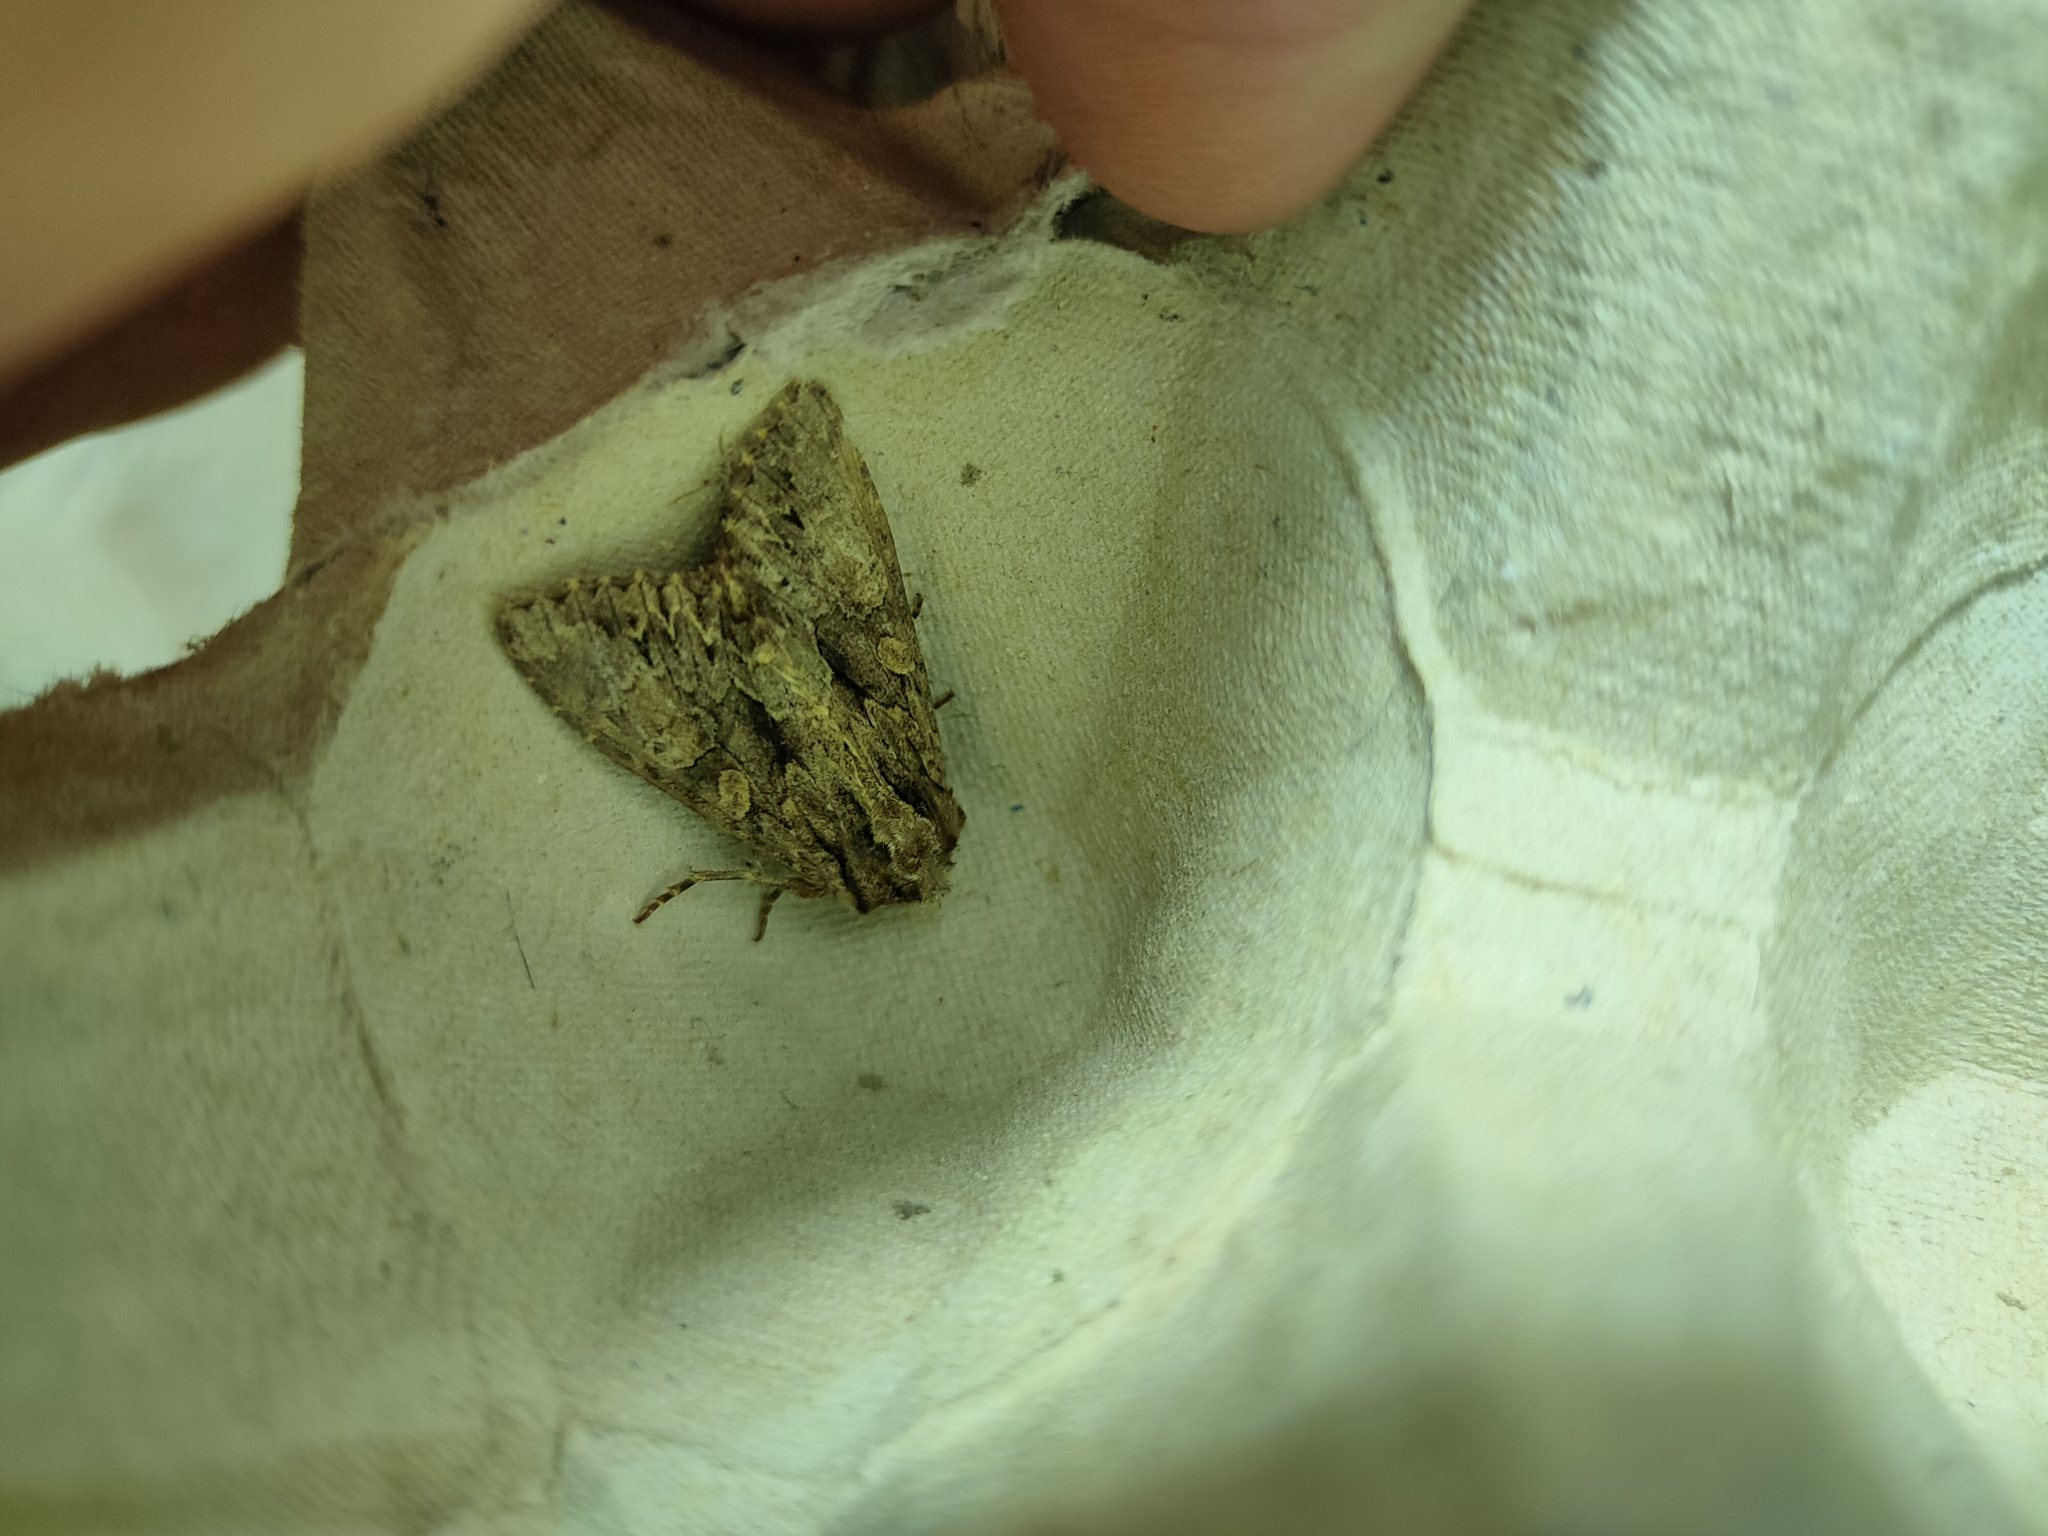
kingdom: Animalia
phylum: Arthropoda
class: Insecta
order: Lepidoptera
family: Noctuidae
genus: Apamea
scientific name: Apamea monoglypha
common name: Dark arches
